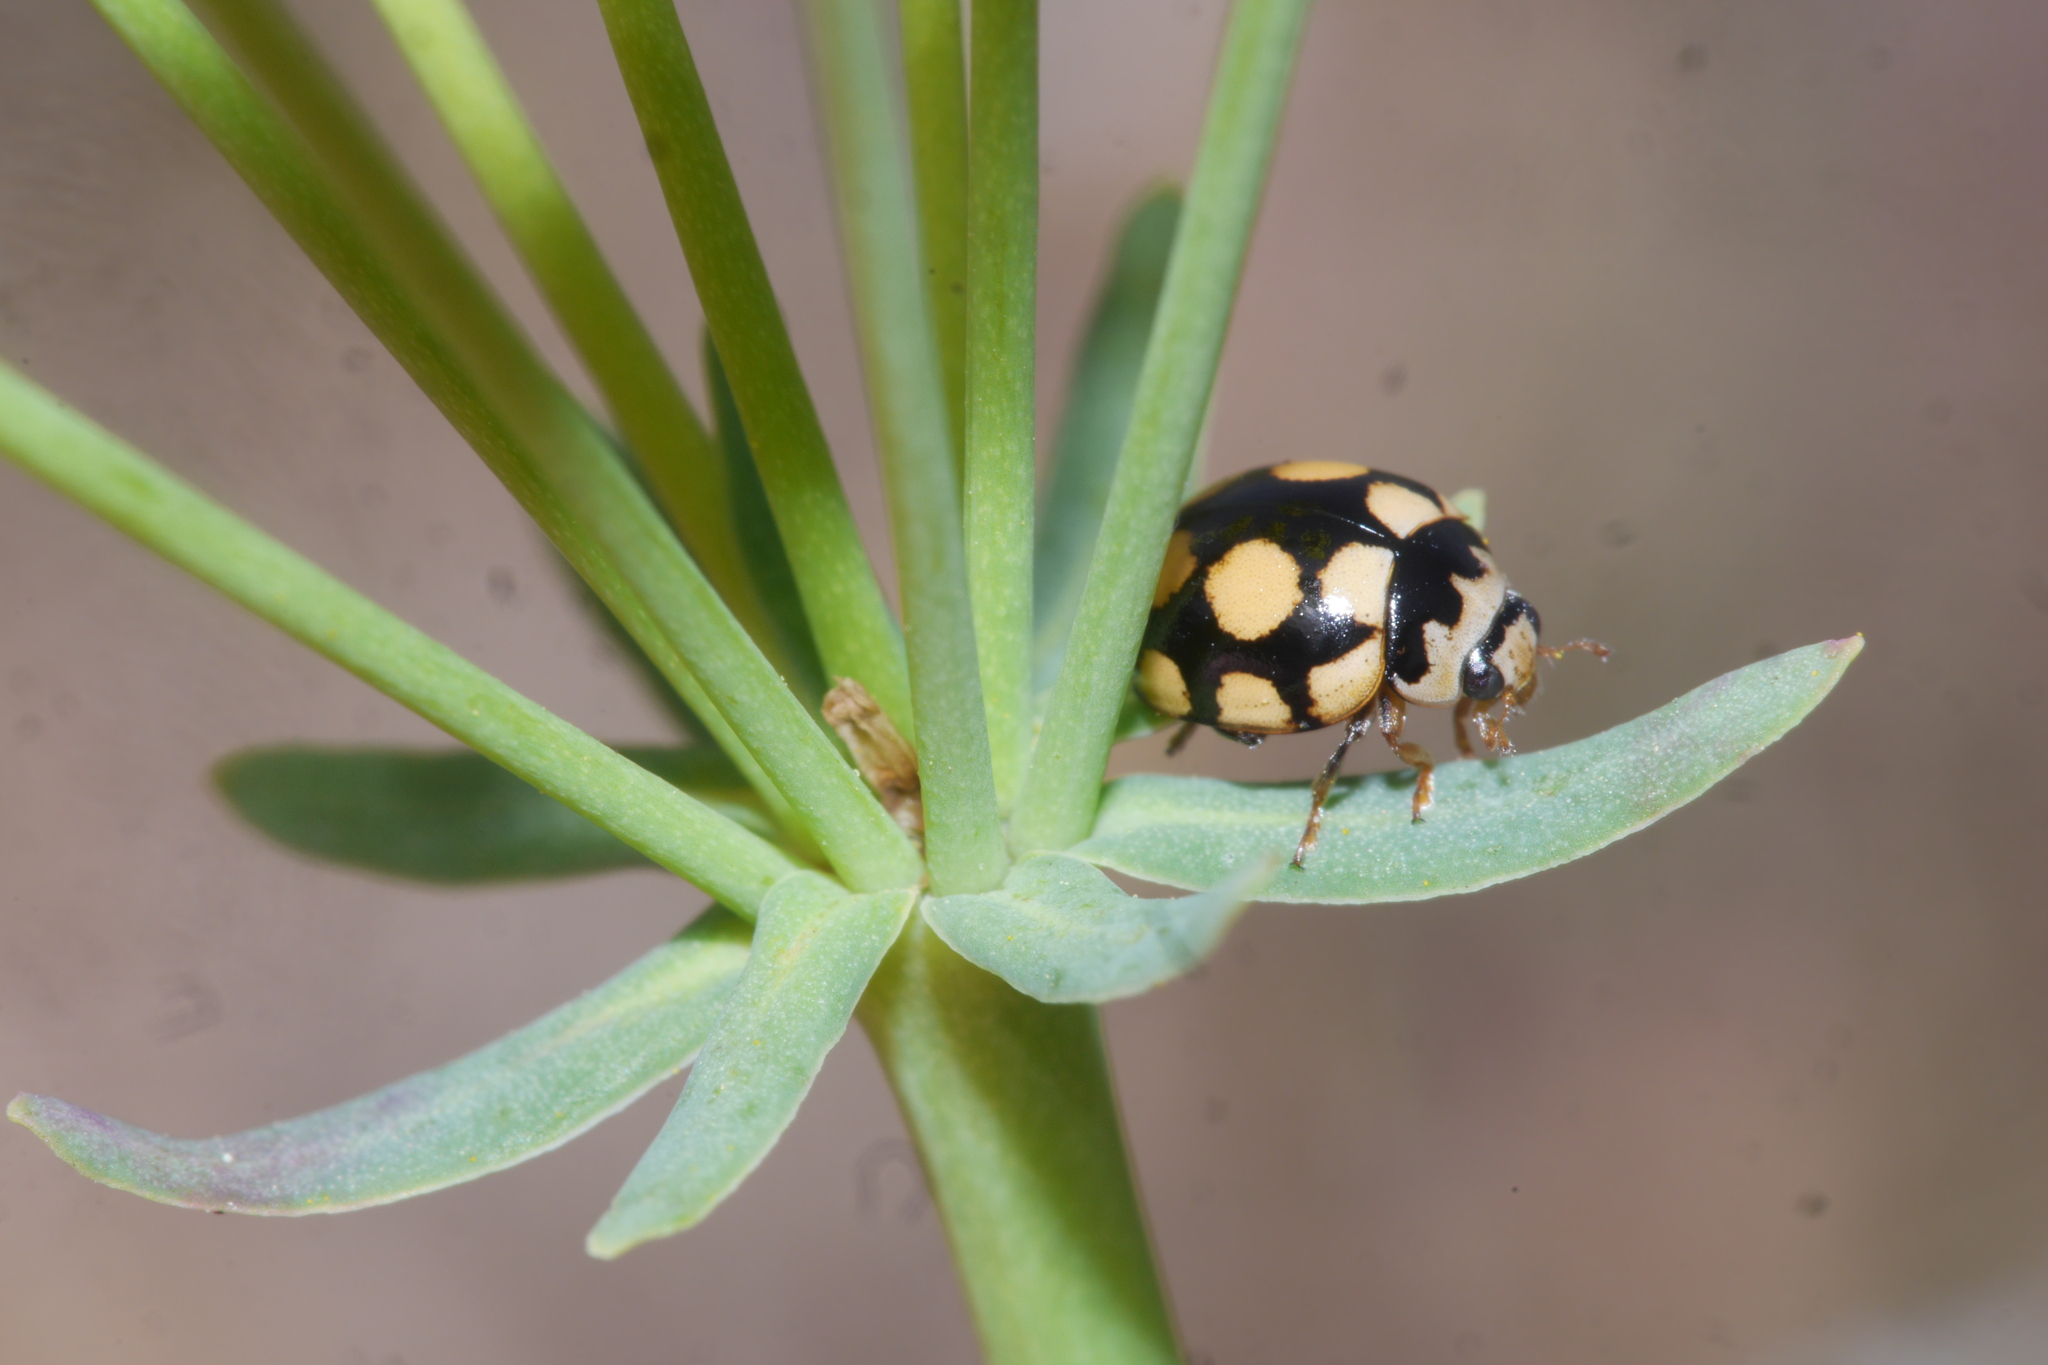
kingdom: Animalia
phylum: Arthropoda
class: Insecta
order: Coleoptera
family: Coccinellidae
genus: Coccinula
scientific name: Coccinula quatuordecimpustulata
